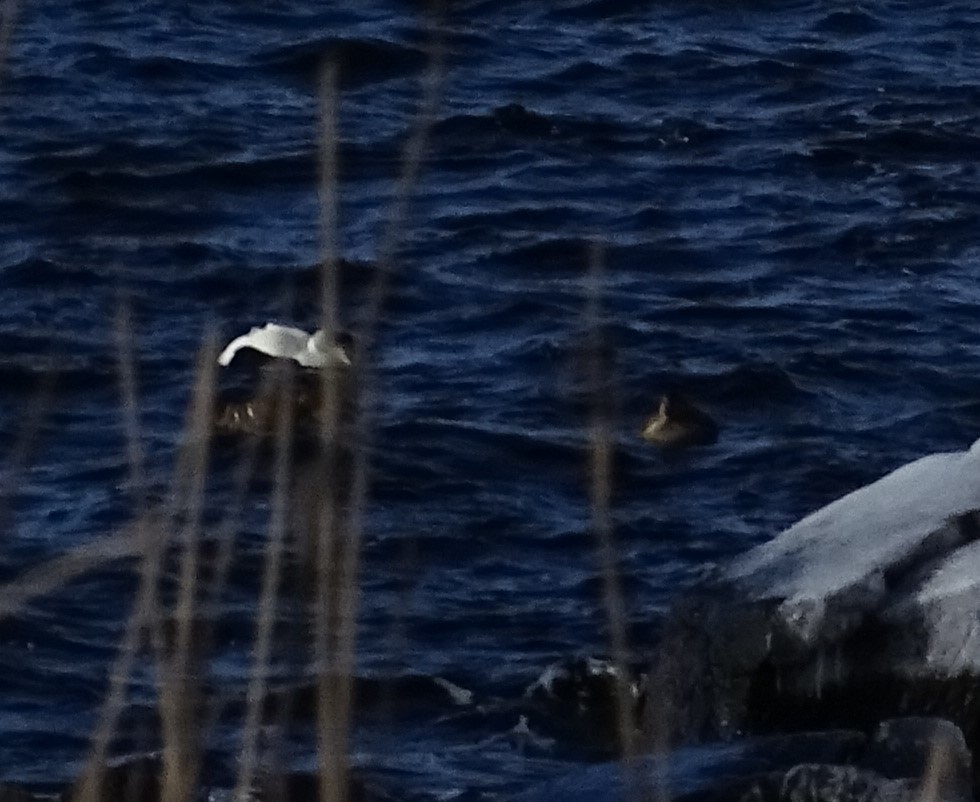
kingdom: Animalia
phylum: Chordata
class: Aves
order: Anseriformes
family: Anatidae
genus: Somateria
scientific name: Somateria mollissima
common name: Common eider
